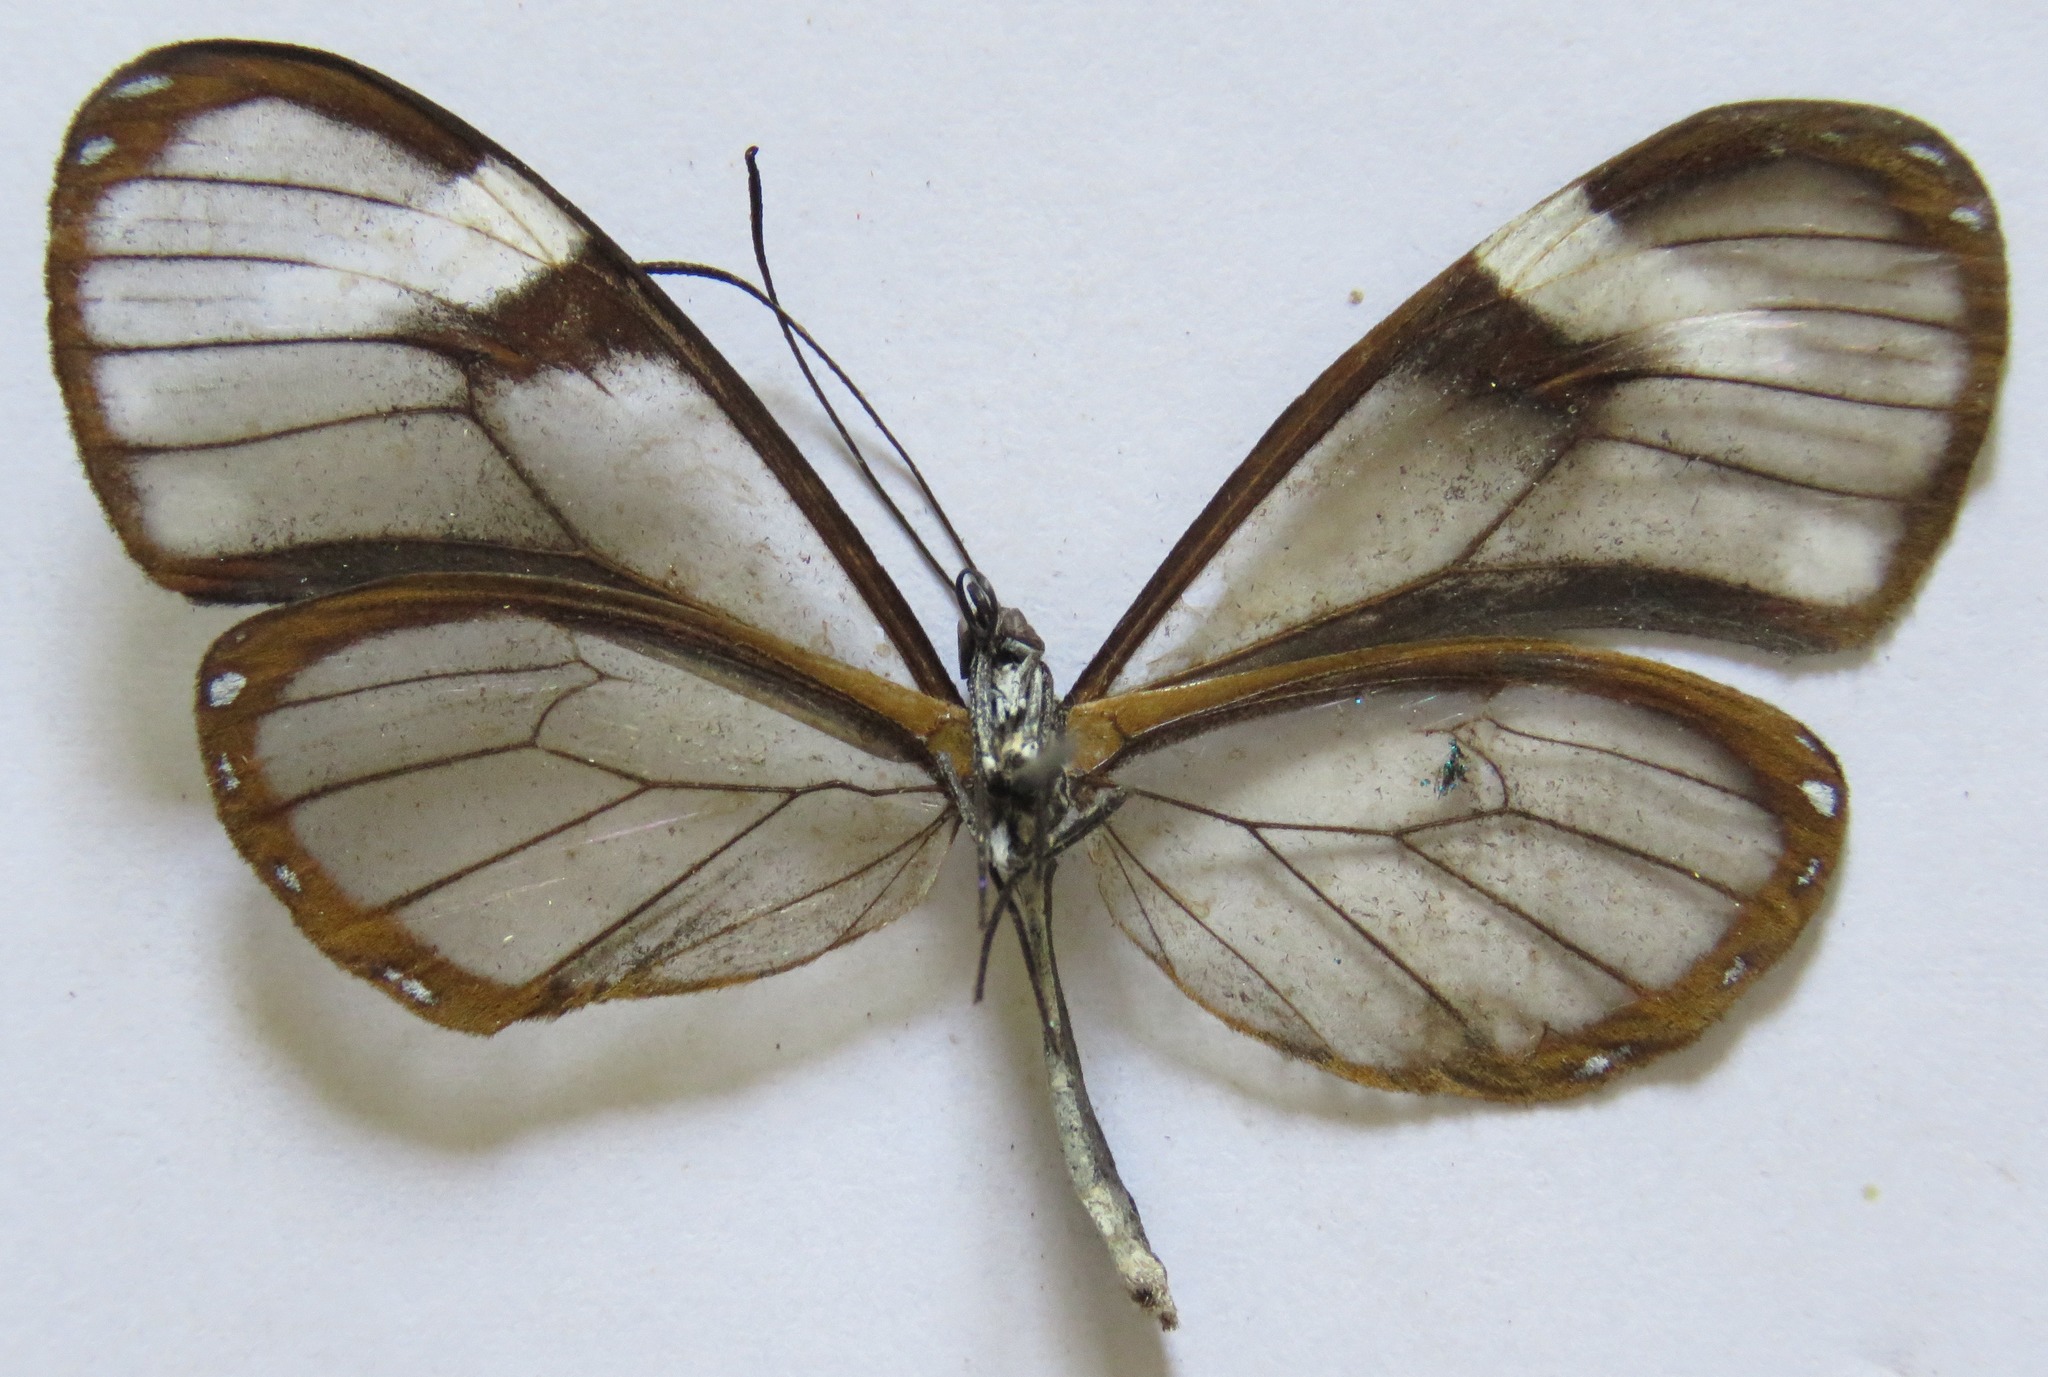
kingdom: Animalia
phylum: Arthropoda
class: Insecta
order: Lepidoptera
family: Nymphalidae
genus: Pteronymia
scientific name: Pteronymia alcmena
